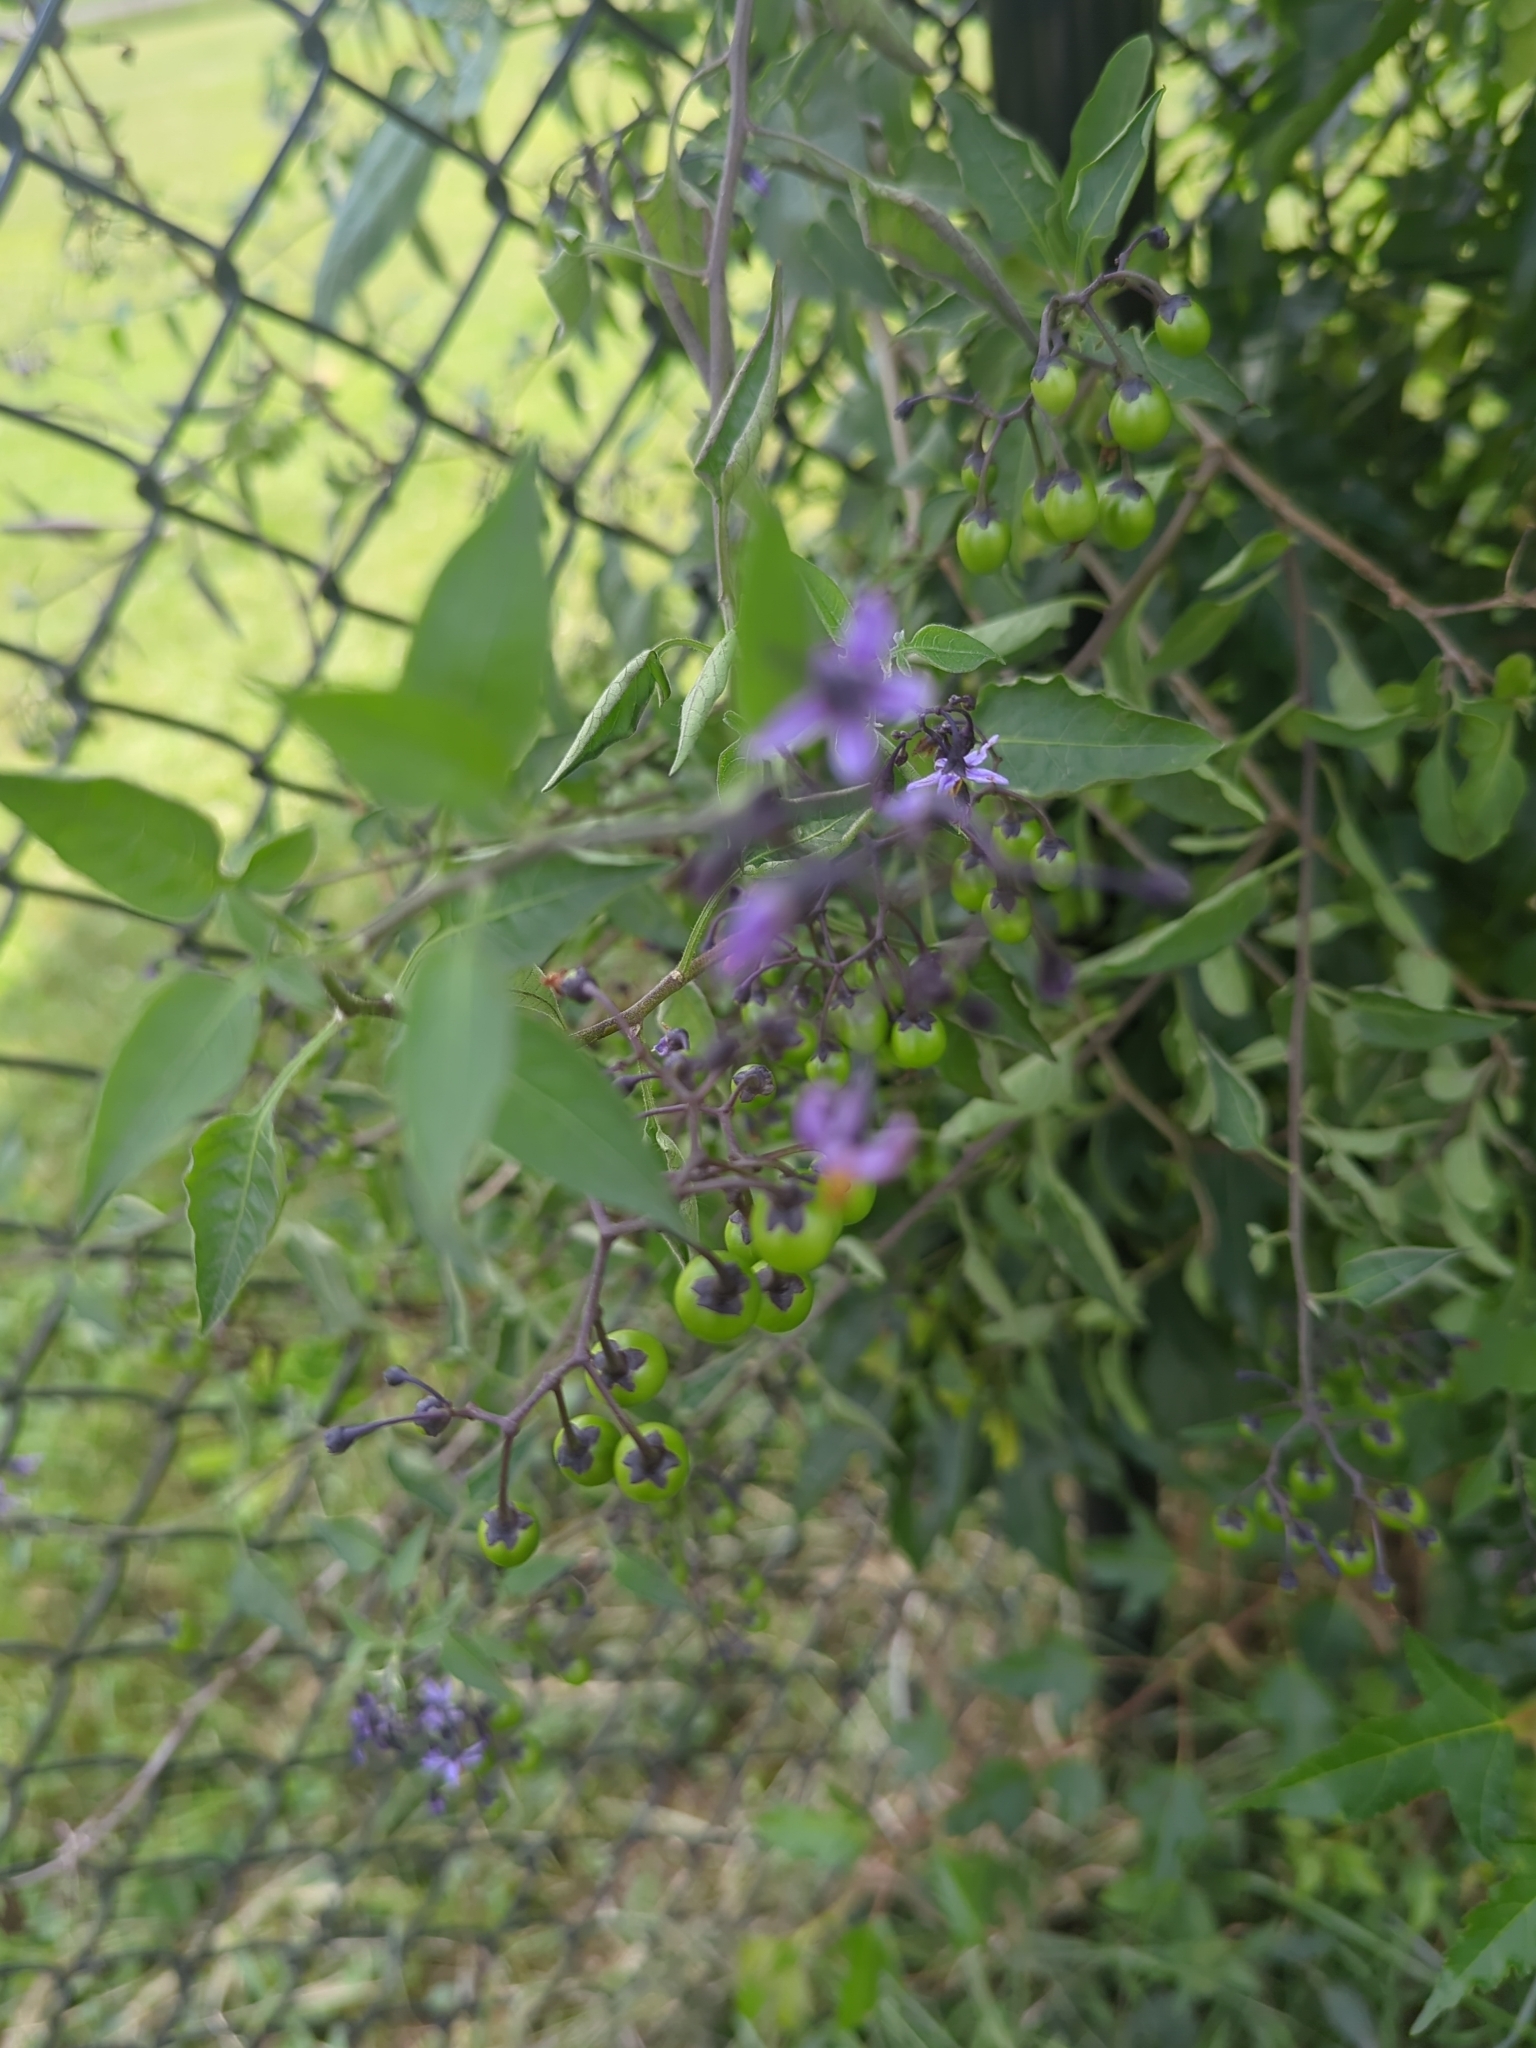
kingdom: Plantae
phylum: Tracheophyta
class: Magnoliopsida
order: Solanales
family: Solanaceae
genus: Solanum
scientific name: Solanum dulcamara
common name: Climbing nightshade
